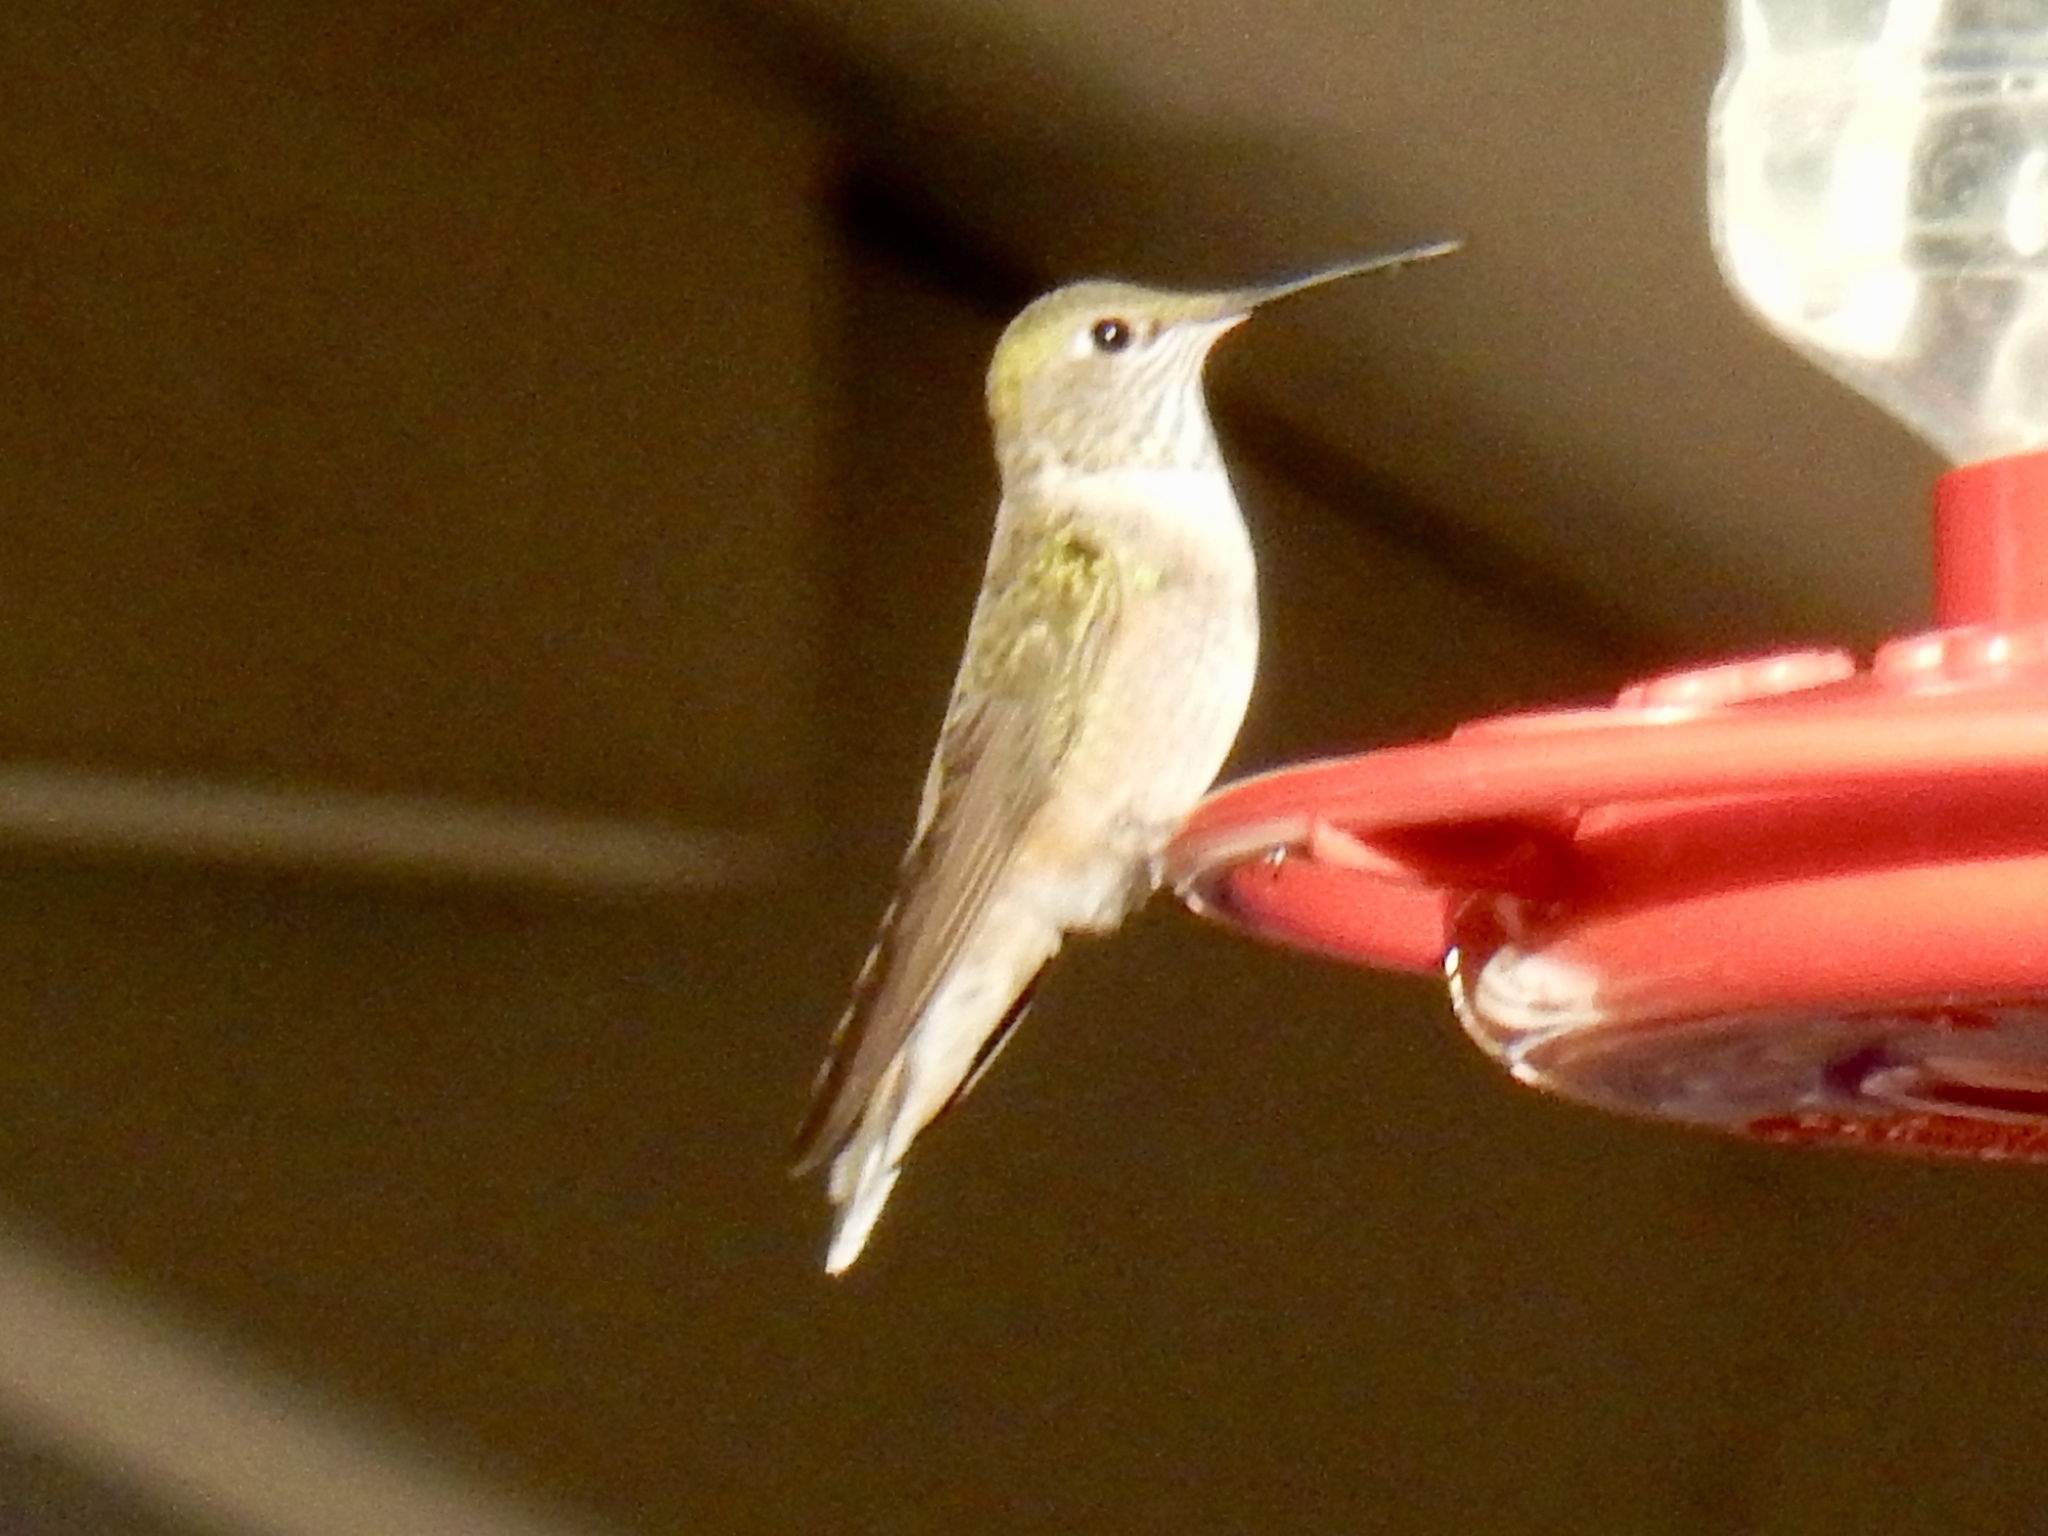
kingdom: Animalia
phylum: Chordata
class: Aves
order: Apodiformes
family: Trochilidae
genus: Selasphorus
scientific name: Selasphorus platycercus
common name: Broad-tailed hummingbird
